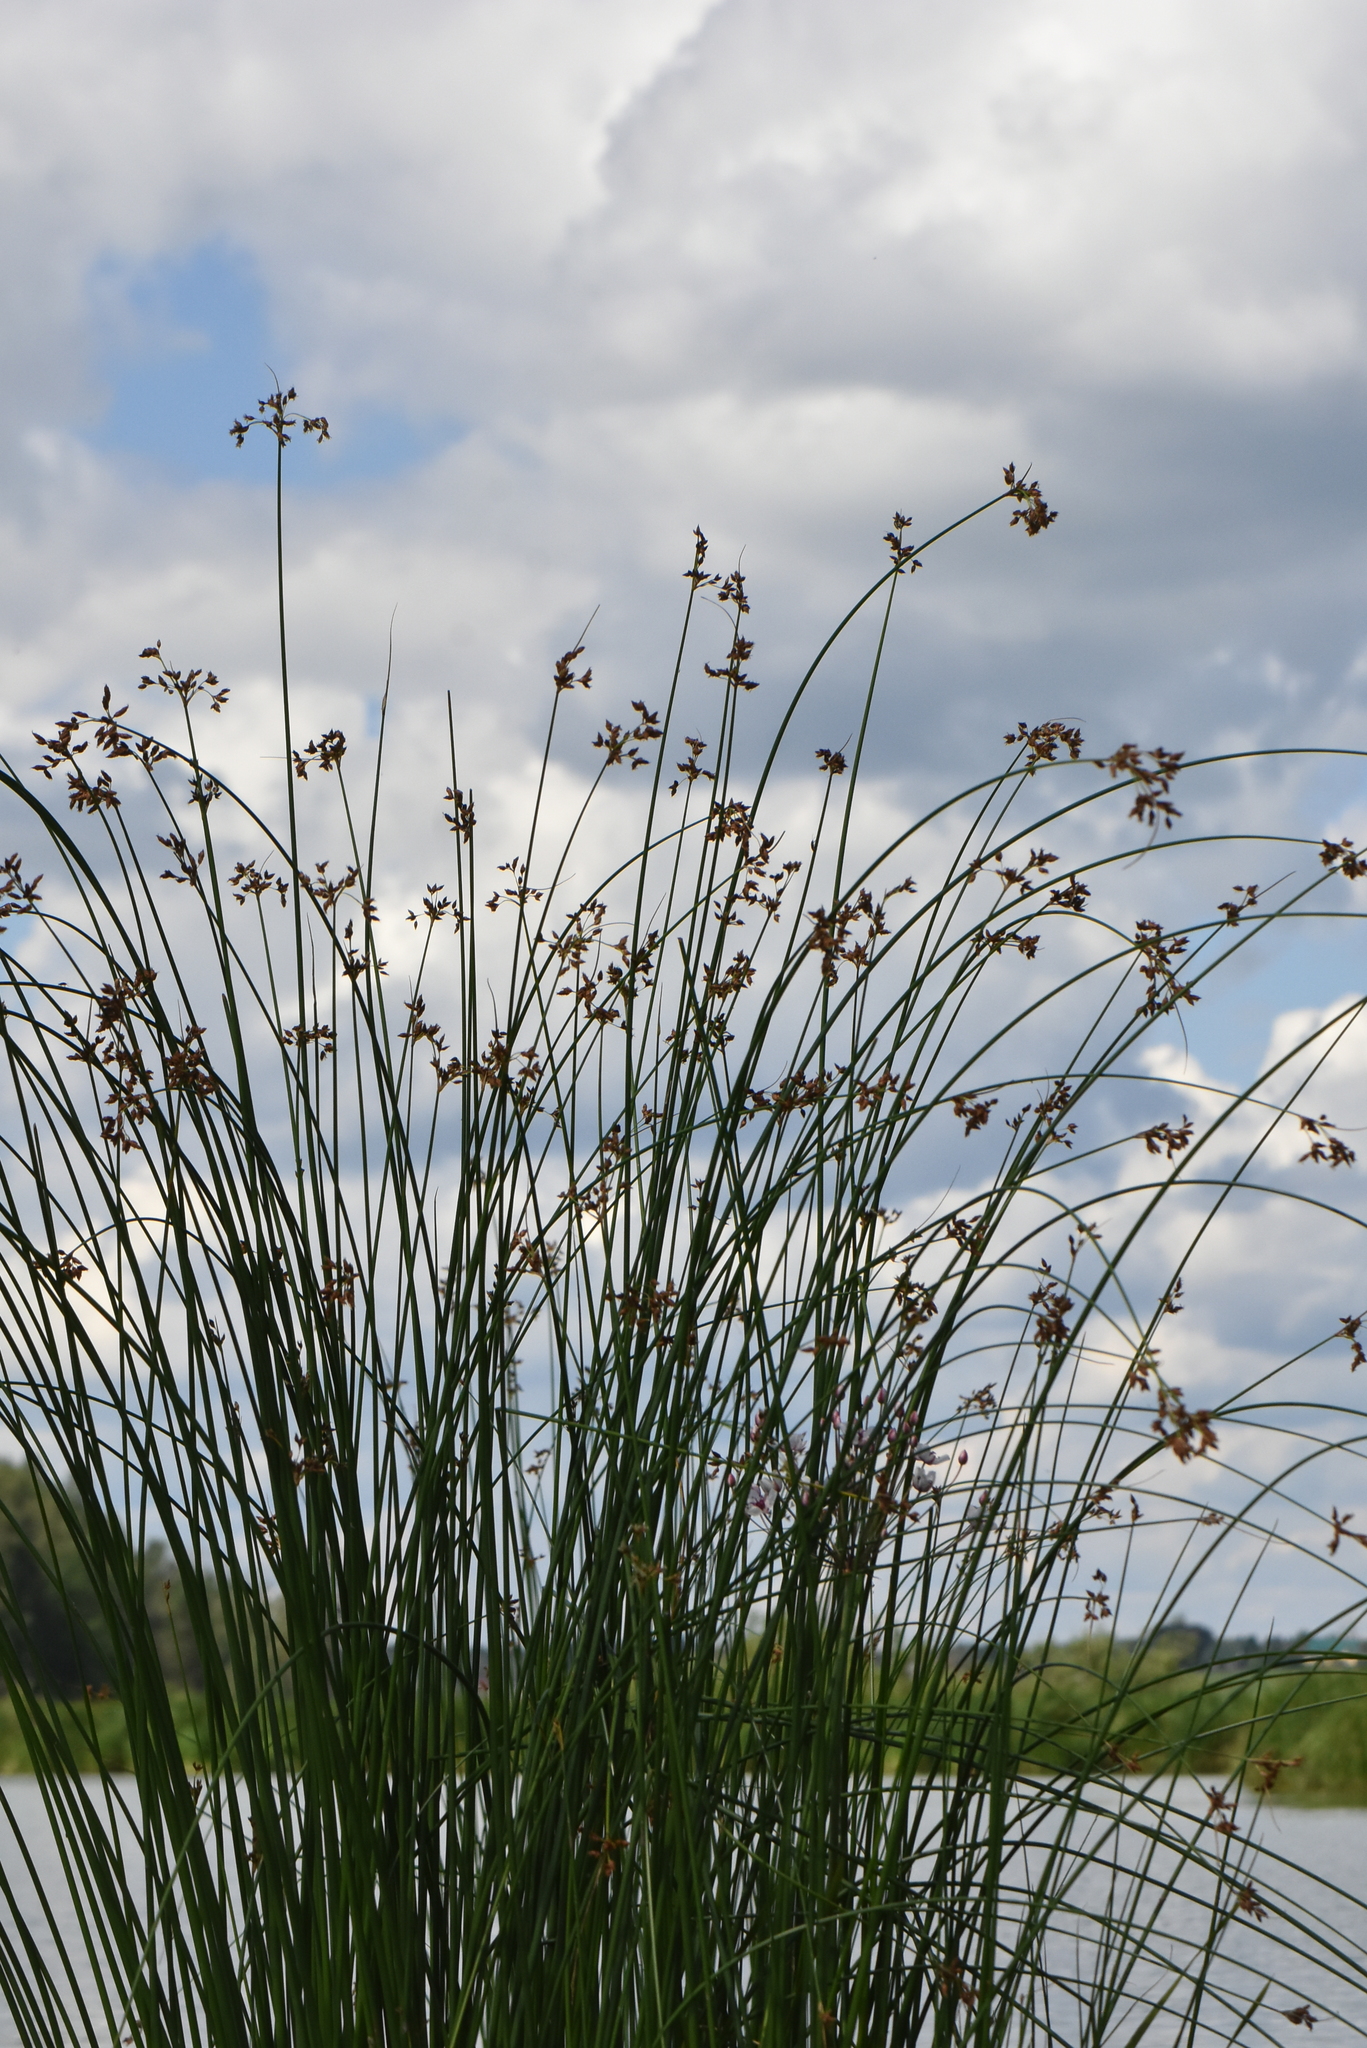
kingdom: Plantae
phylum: Tracheophyta
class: Liliopsida
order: Poales
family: Cyperaceae
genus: Schoenoplectus
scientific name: Schoenoplectus lacustris
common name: Common club-rush
